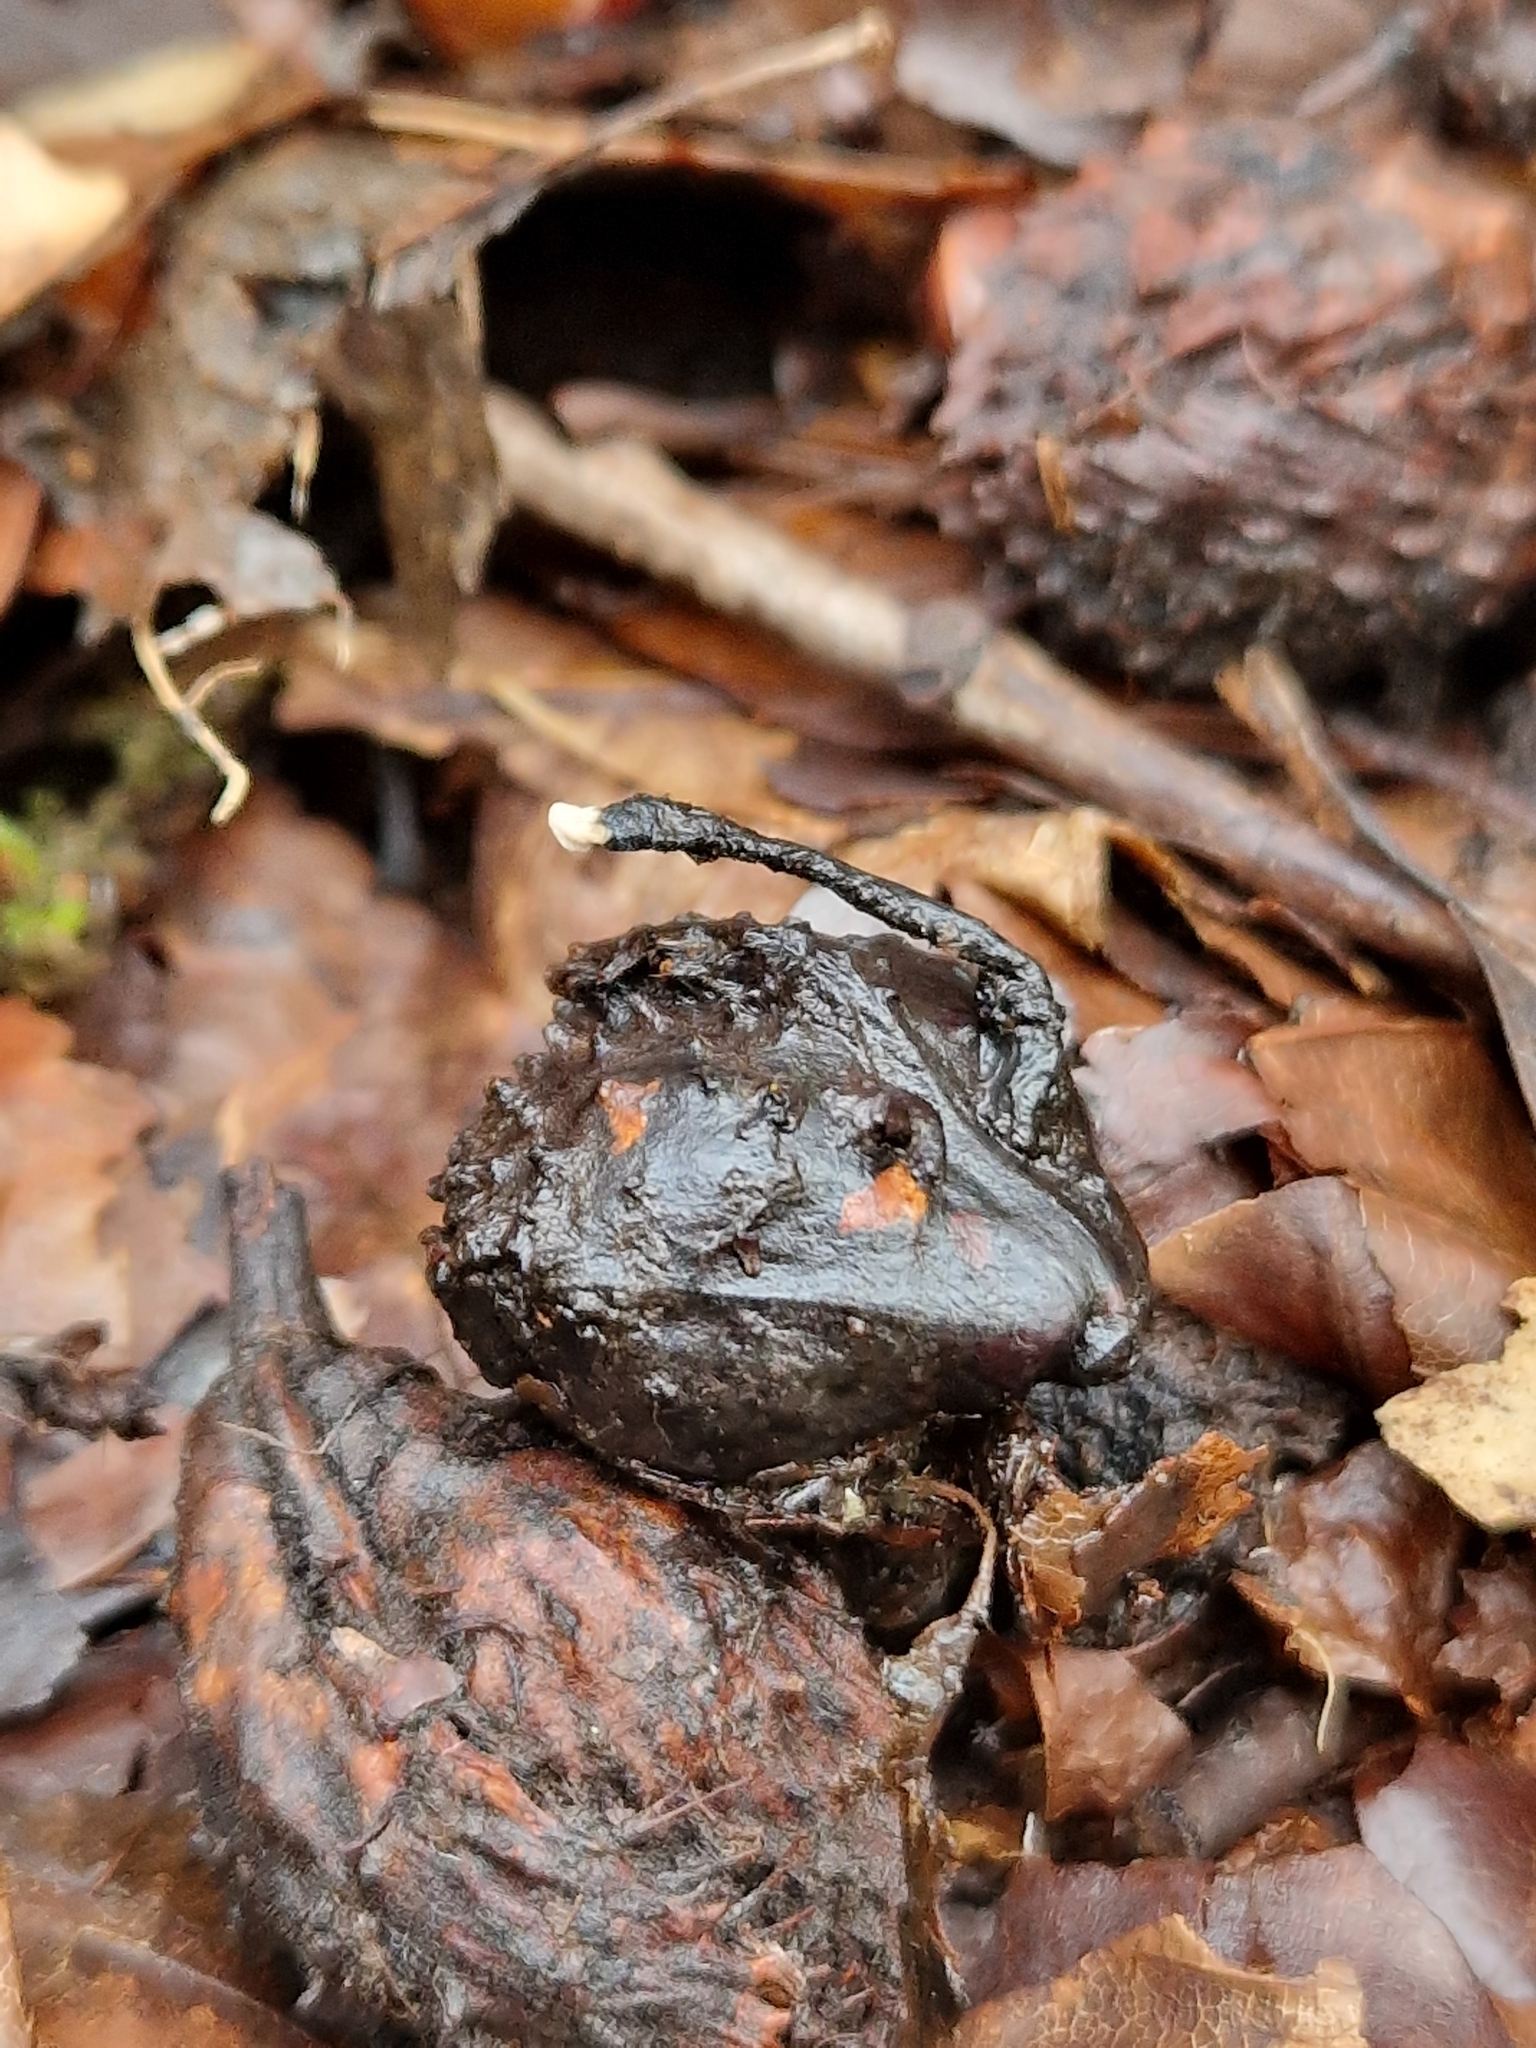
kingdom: Fungi
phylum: Ascomycota
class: Sordariomycetes
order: Xylariales
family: Xylariaceae
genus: Xylaria
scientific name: Xylaria carpophila
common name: Beechmast candlesnuff
